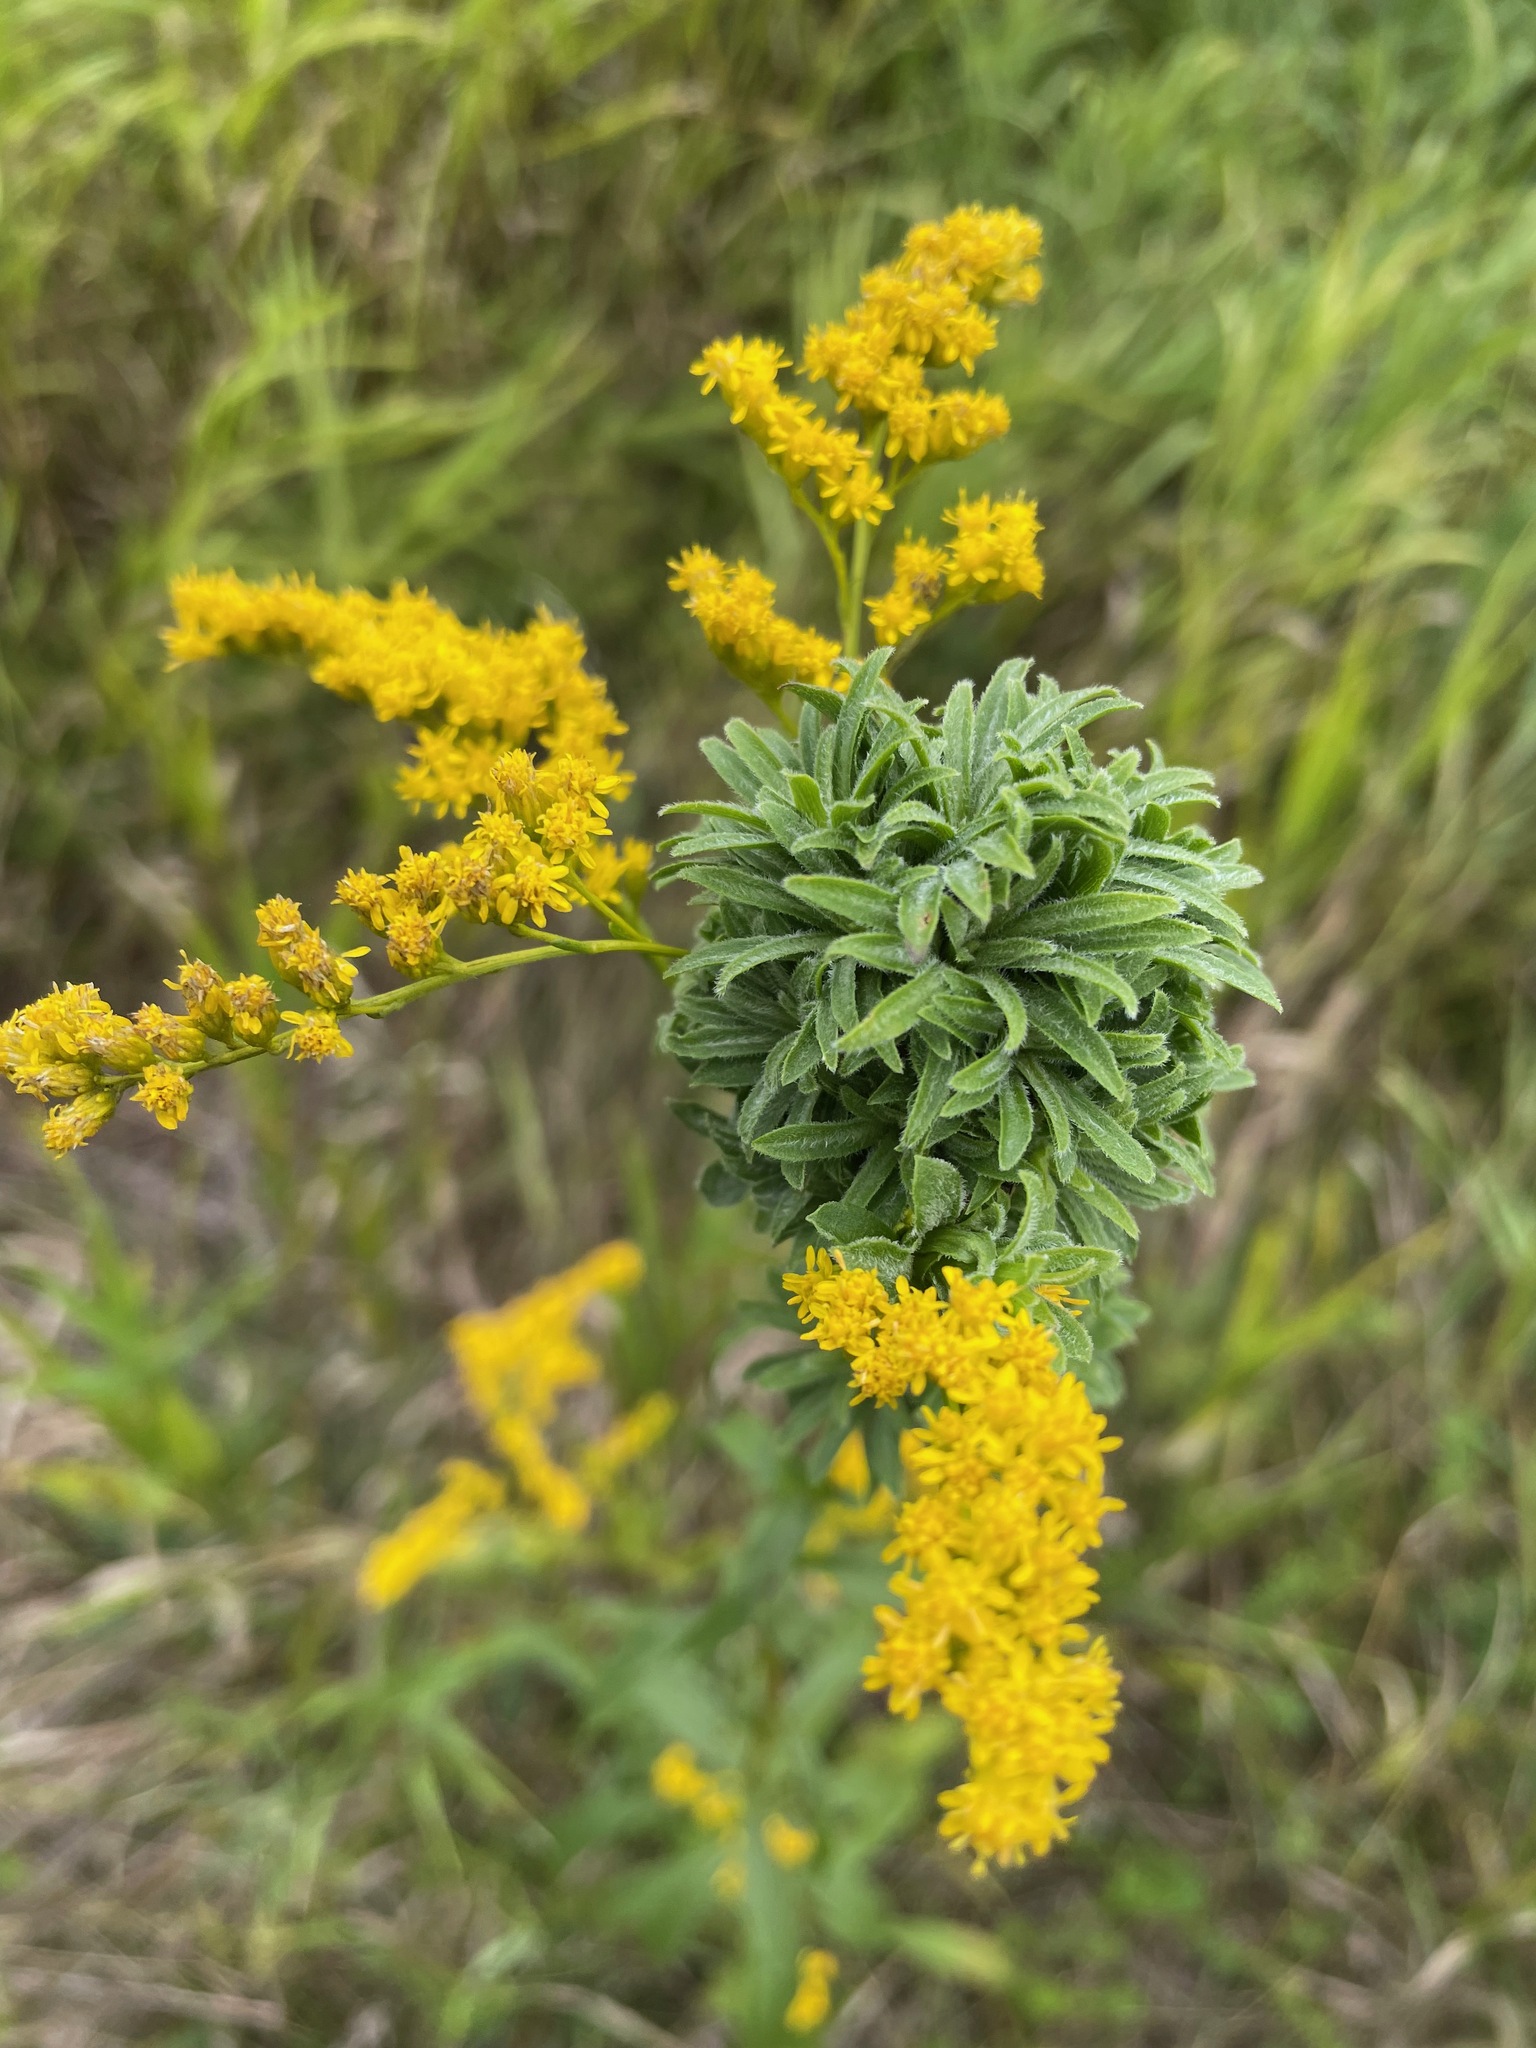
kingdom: Animalia
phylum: Arthropoda
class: Insecta
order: Diptera
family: Cecidomyiidae
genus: Asphondylia
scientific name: Asphondylia monacha
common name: Nun midge
